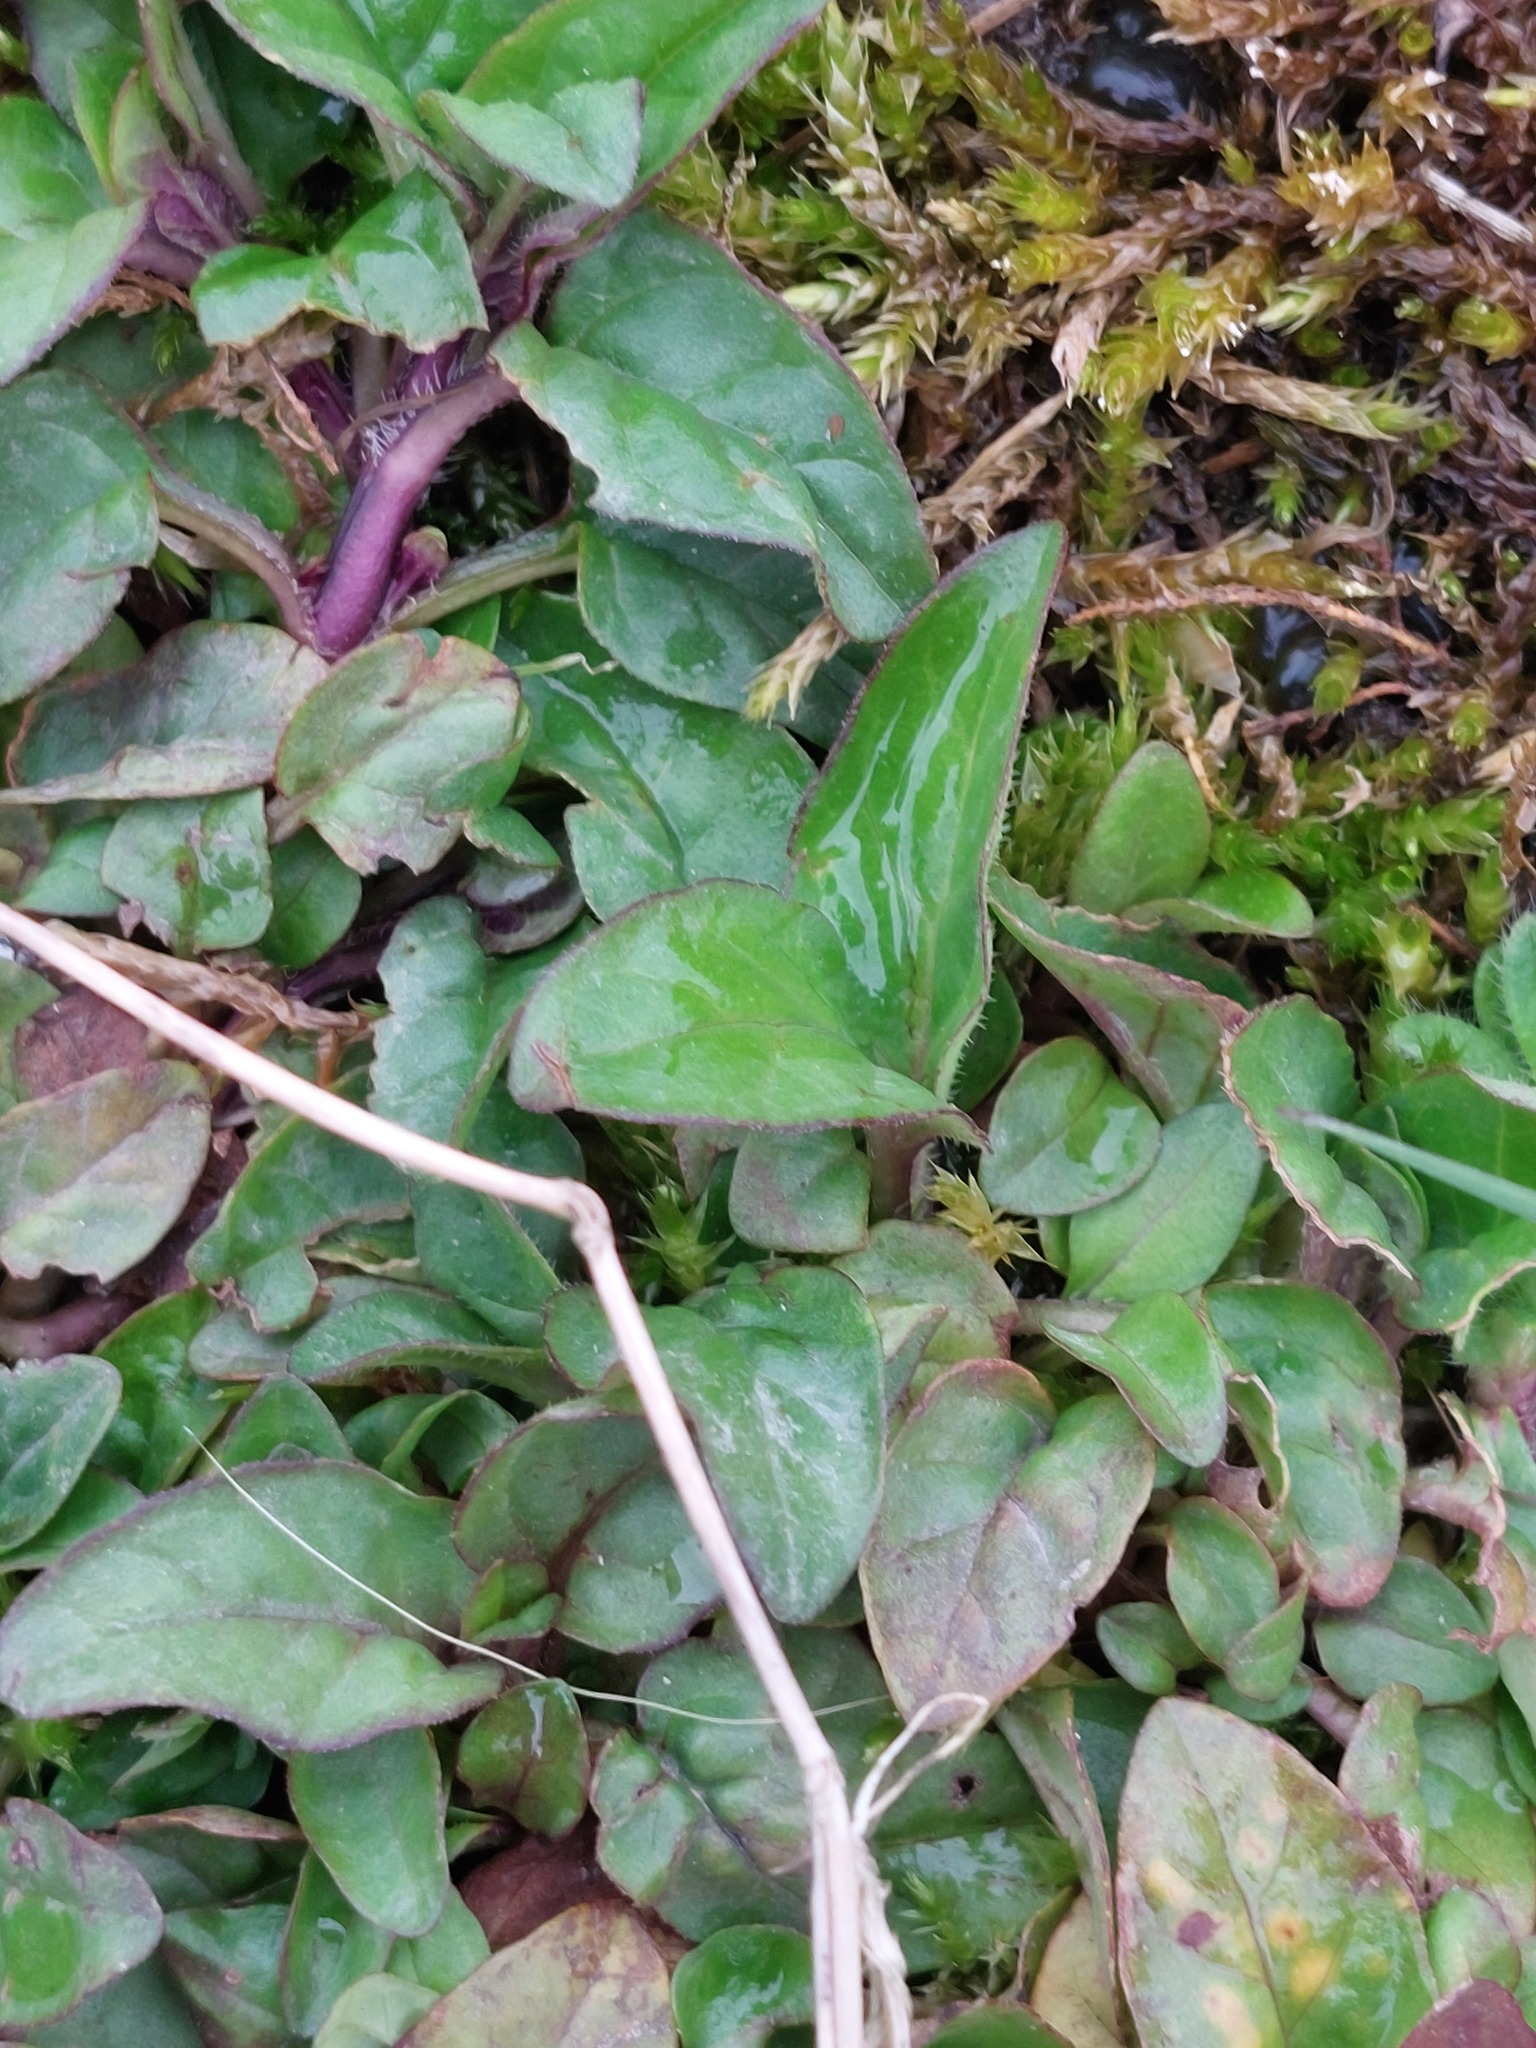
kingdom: Plantae
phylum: Tracheophyta
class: Magnoliopsida
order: Lamiales
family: Lamiaceae
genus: Prunella
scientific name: Prunella vulgaris
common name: Heal-all
